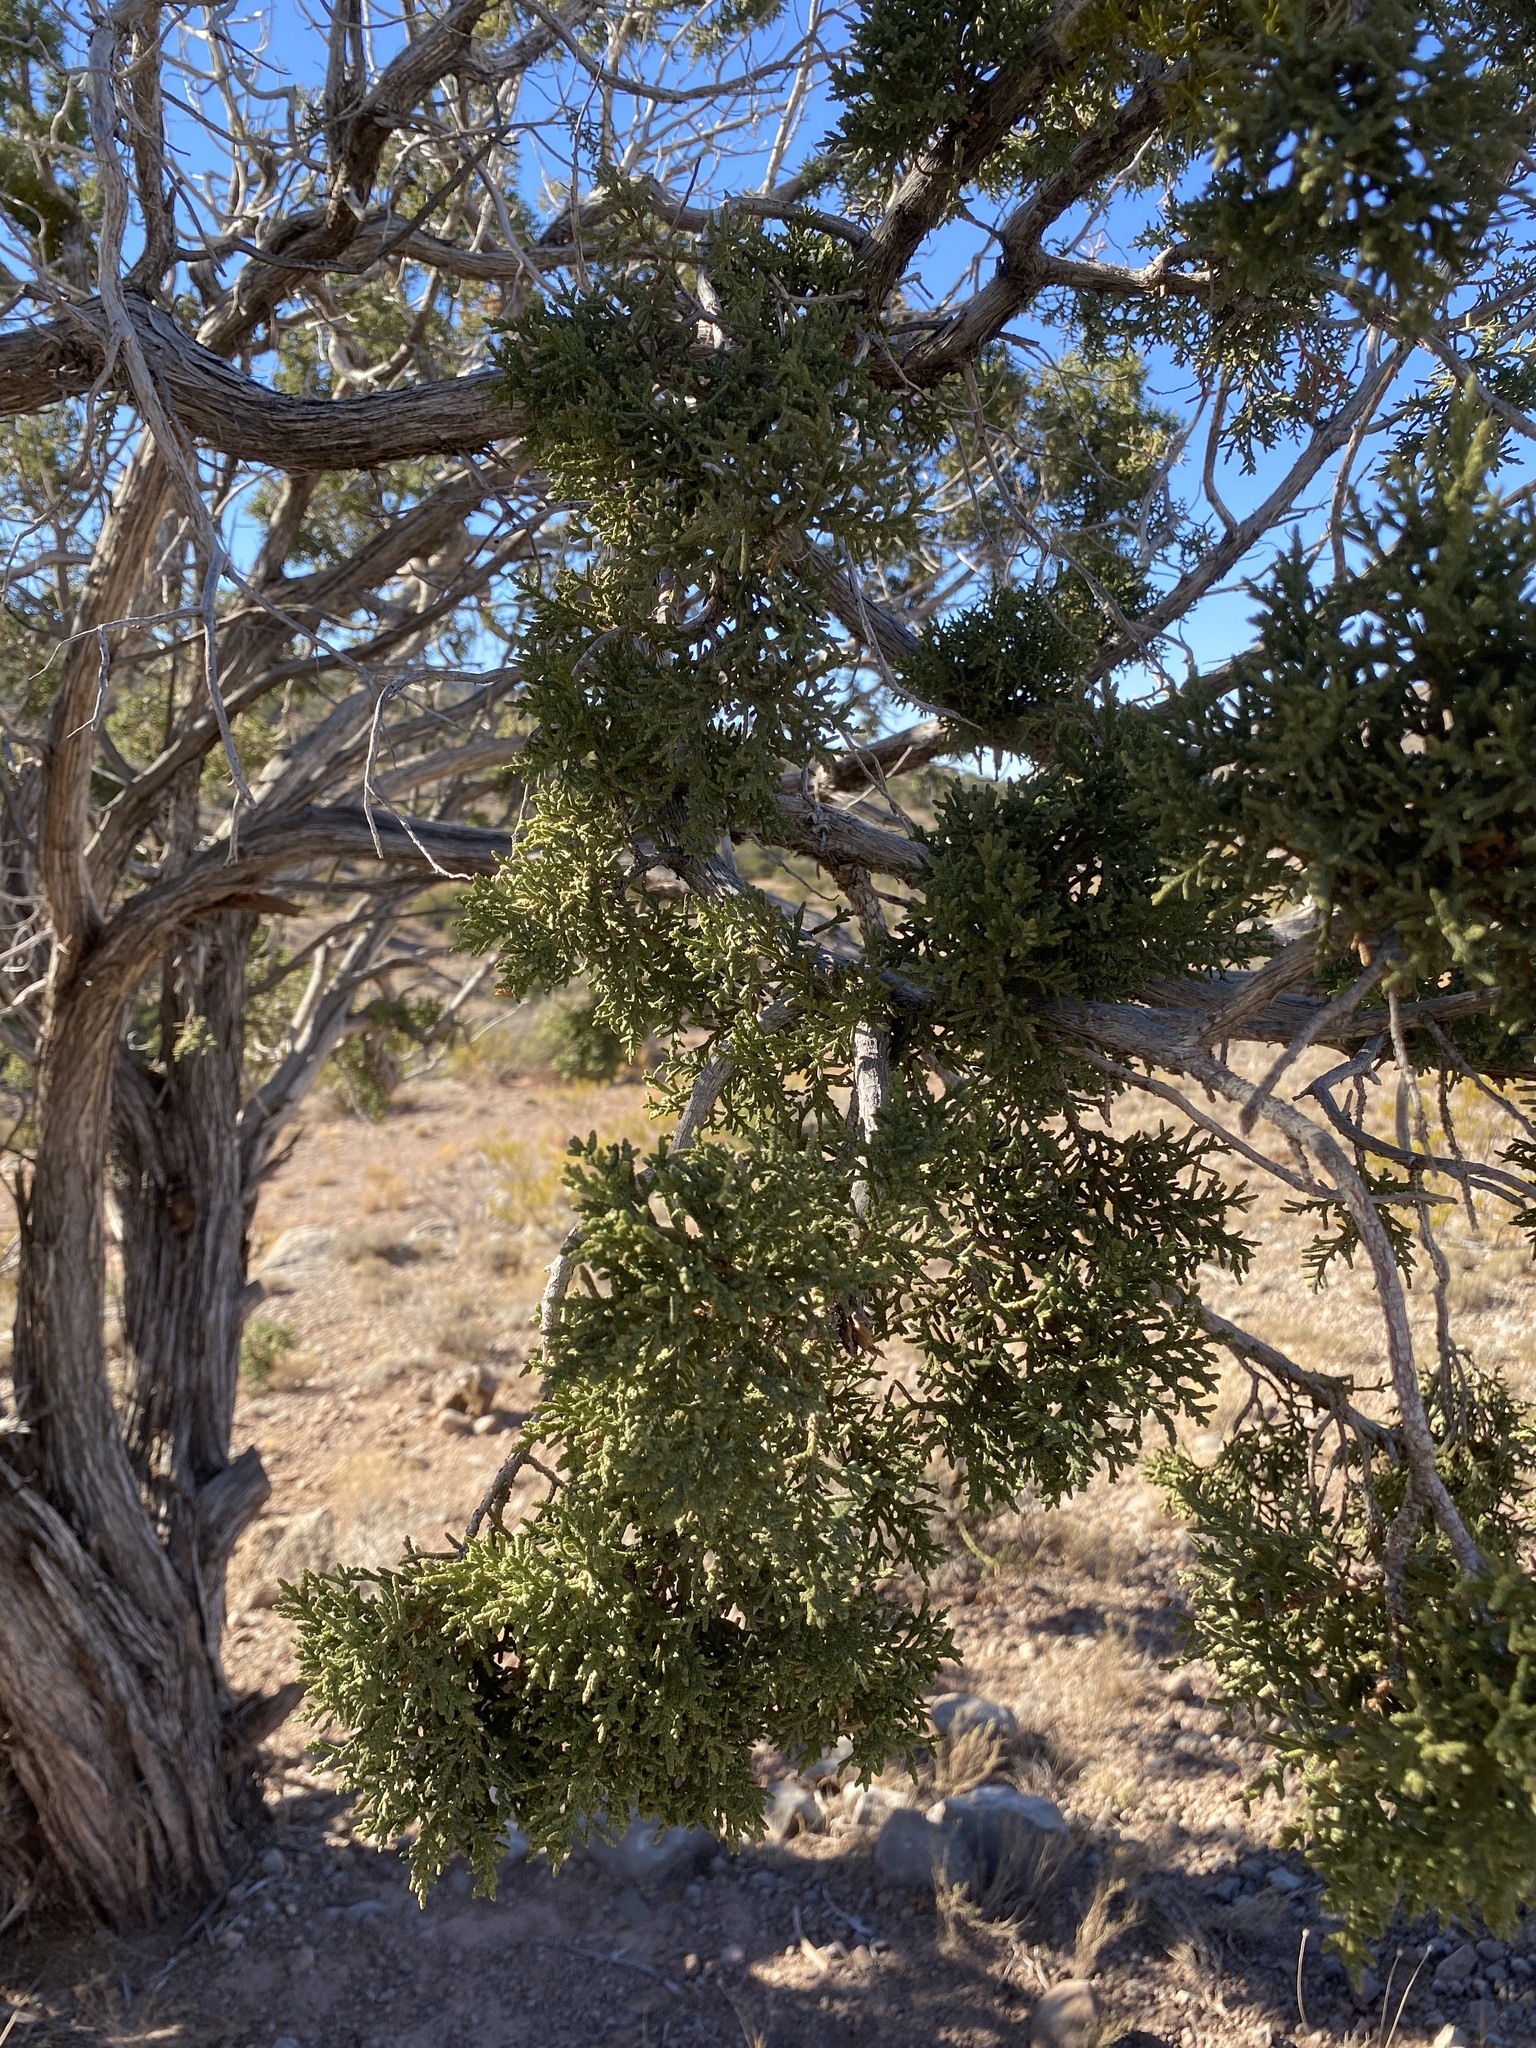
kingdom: Plantae
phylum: Tracheophyta
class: Pinopsida
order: Pinales
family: Cupressaceae
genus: Juniperus
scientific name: Juniperus monosperma
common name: One-seed juniper
